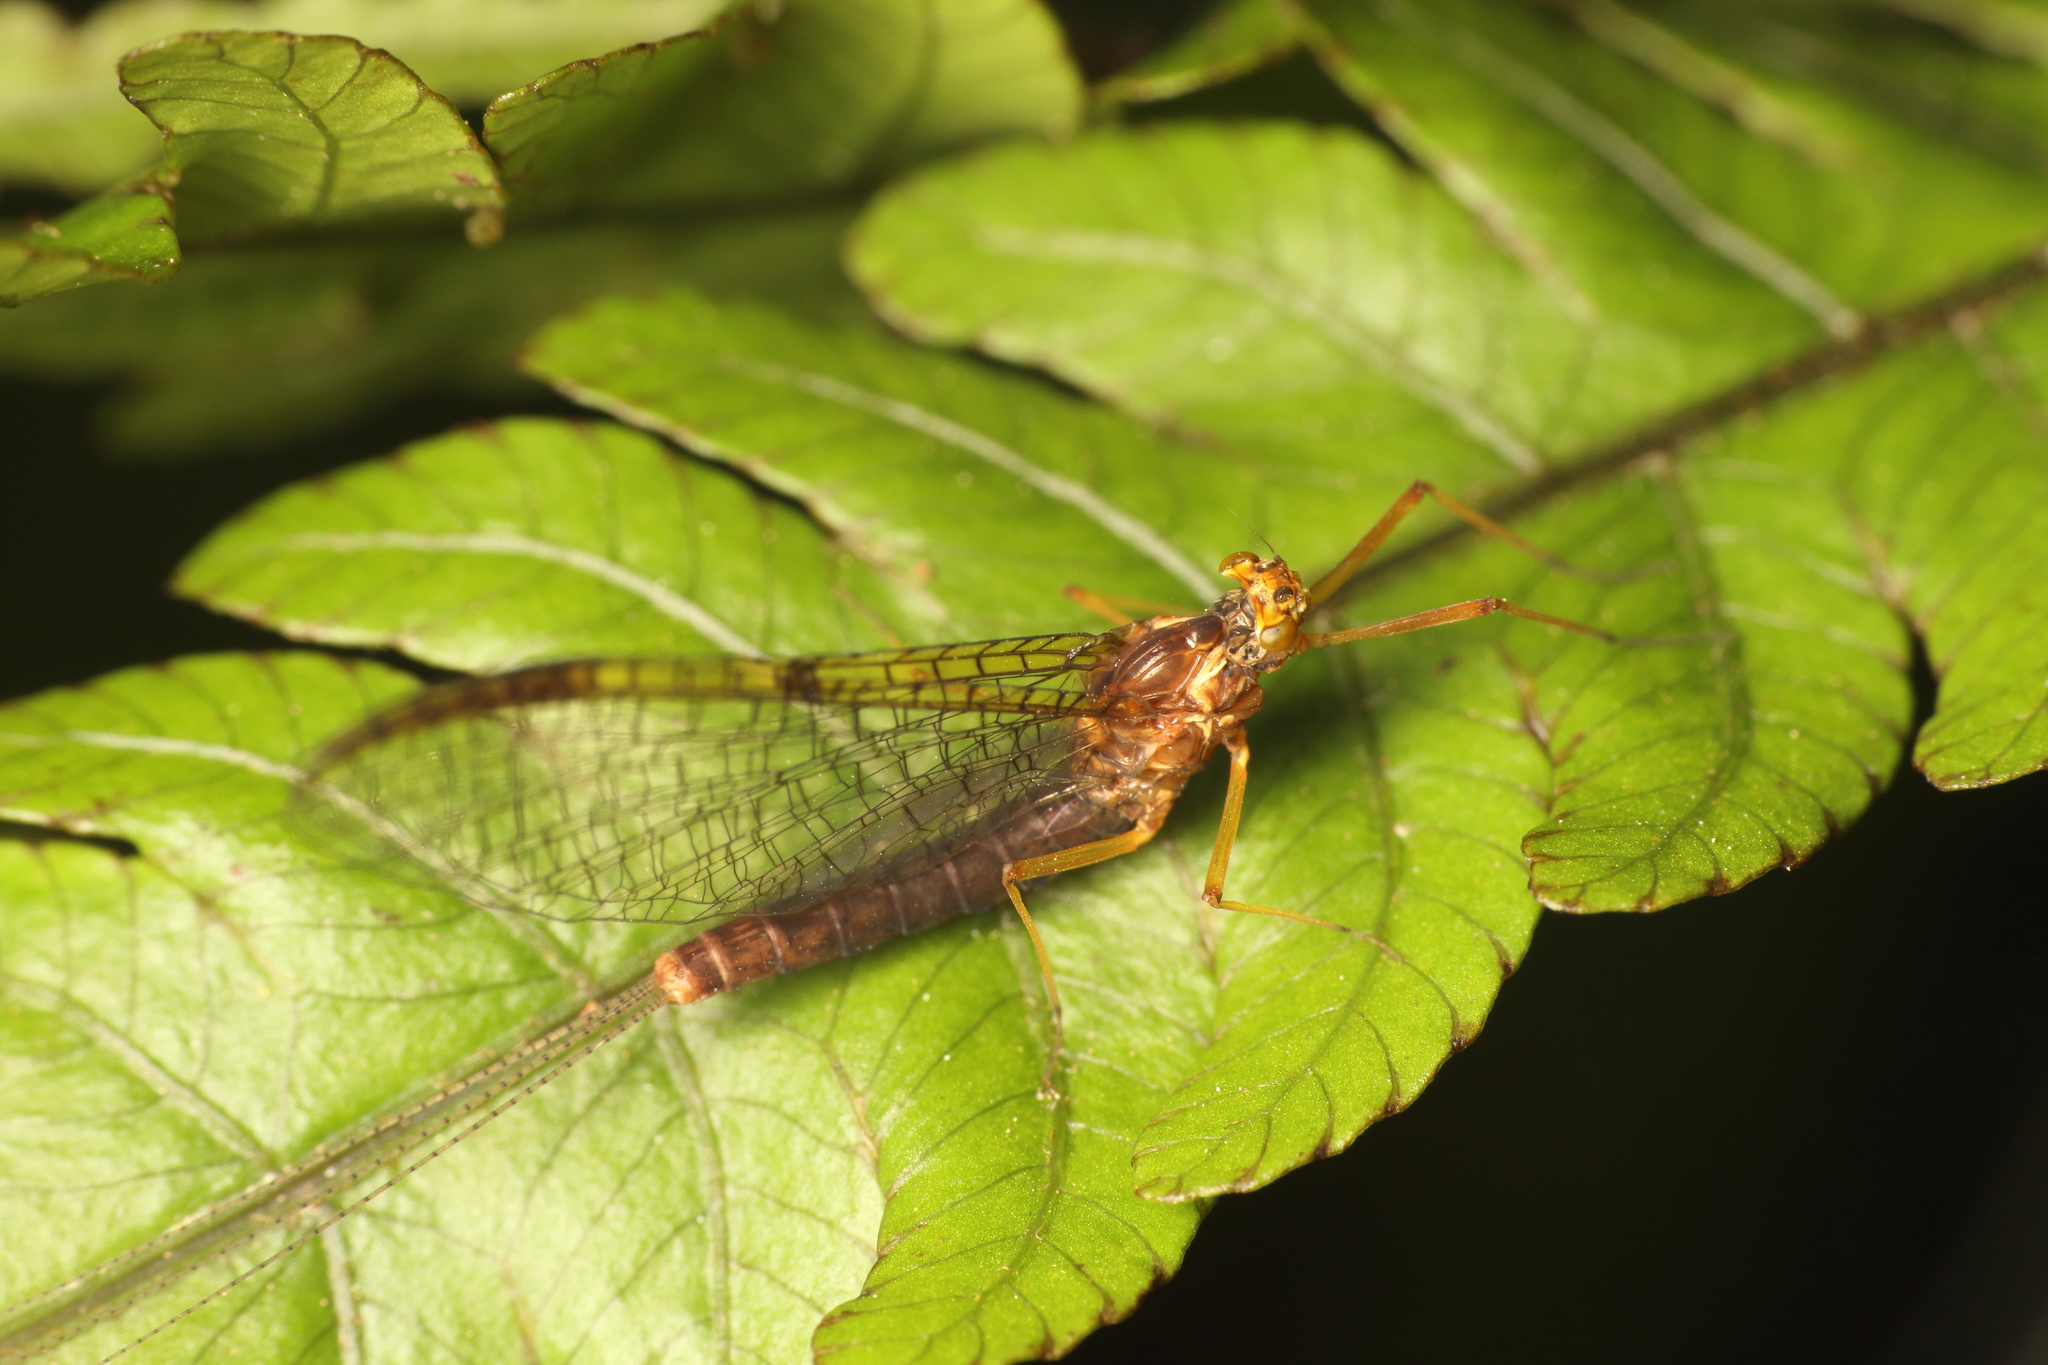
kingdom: Animalia
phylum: Arthropoda
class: Insecta
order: Ephemeroptera
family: Leptophlebiidae
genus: Zephlebia
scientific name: Zephlebia dentata
